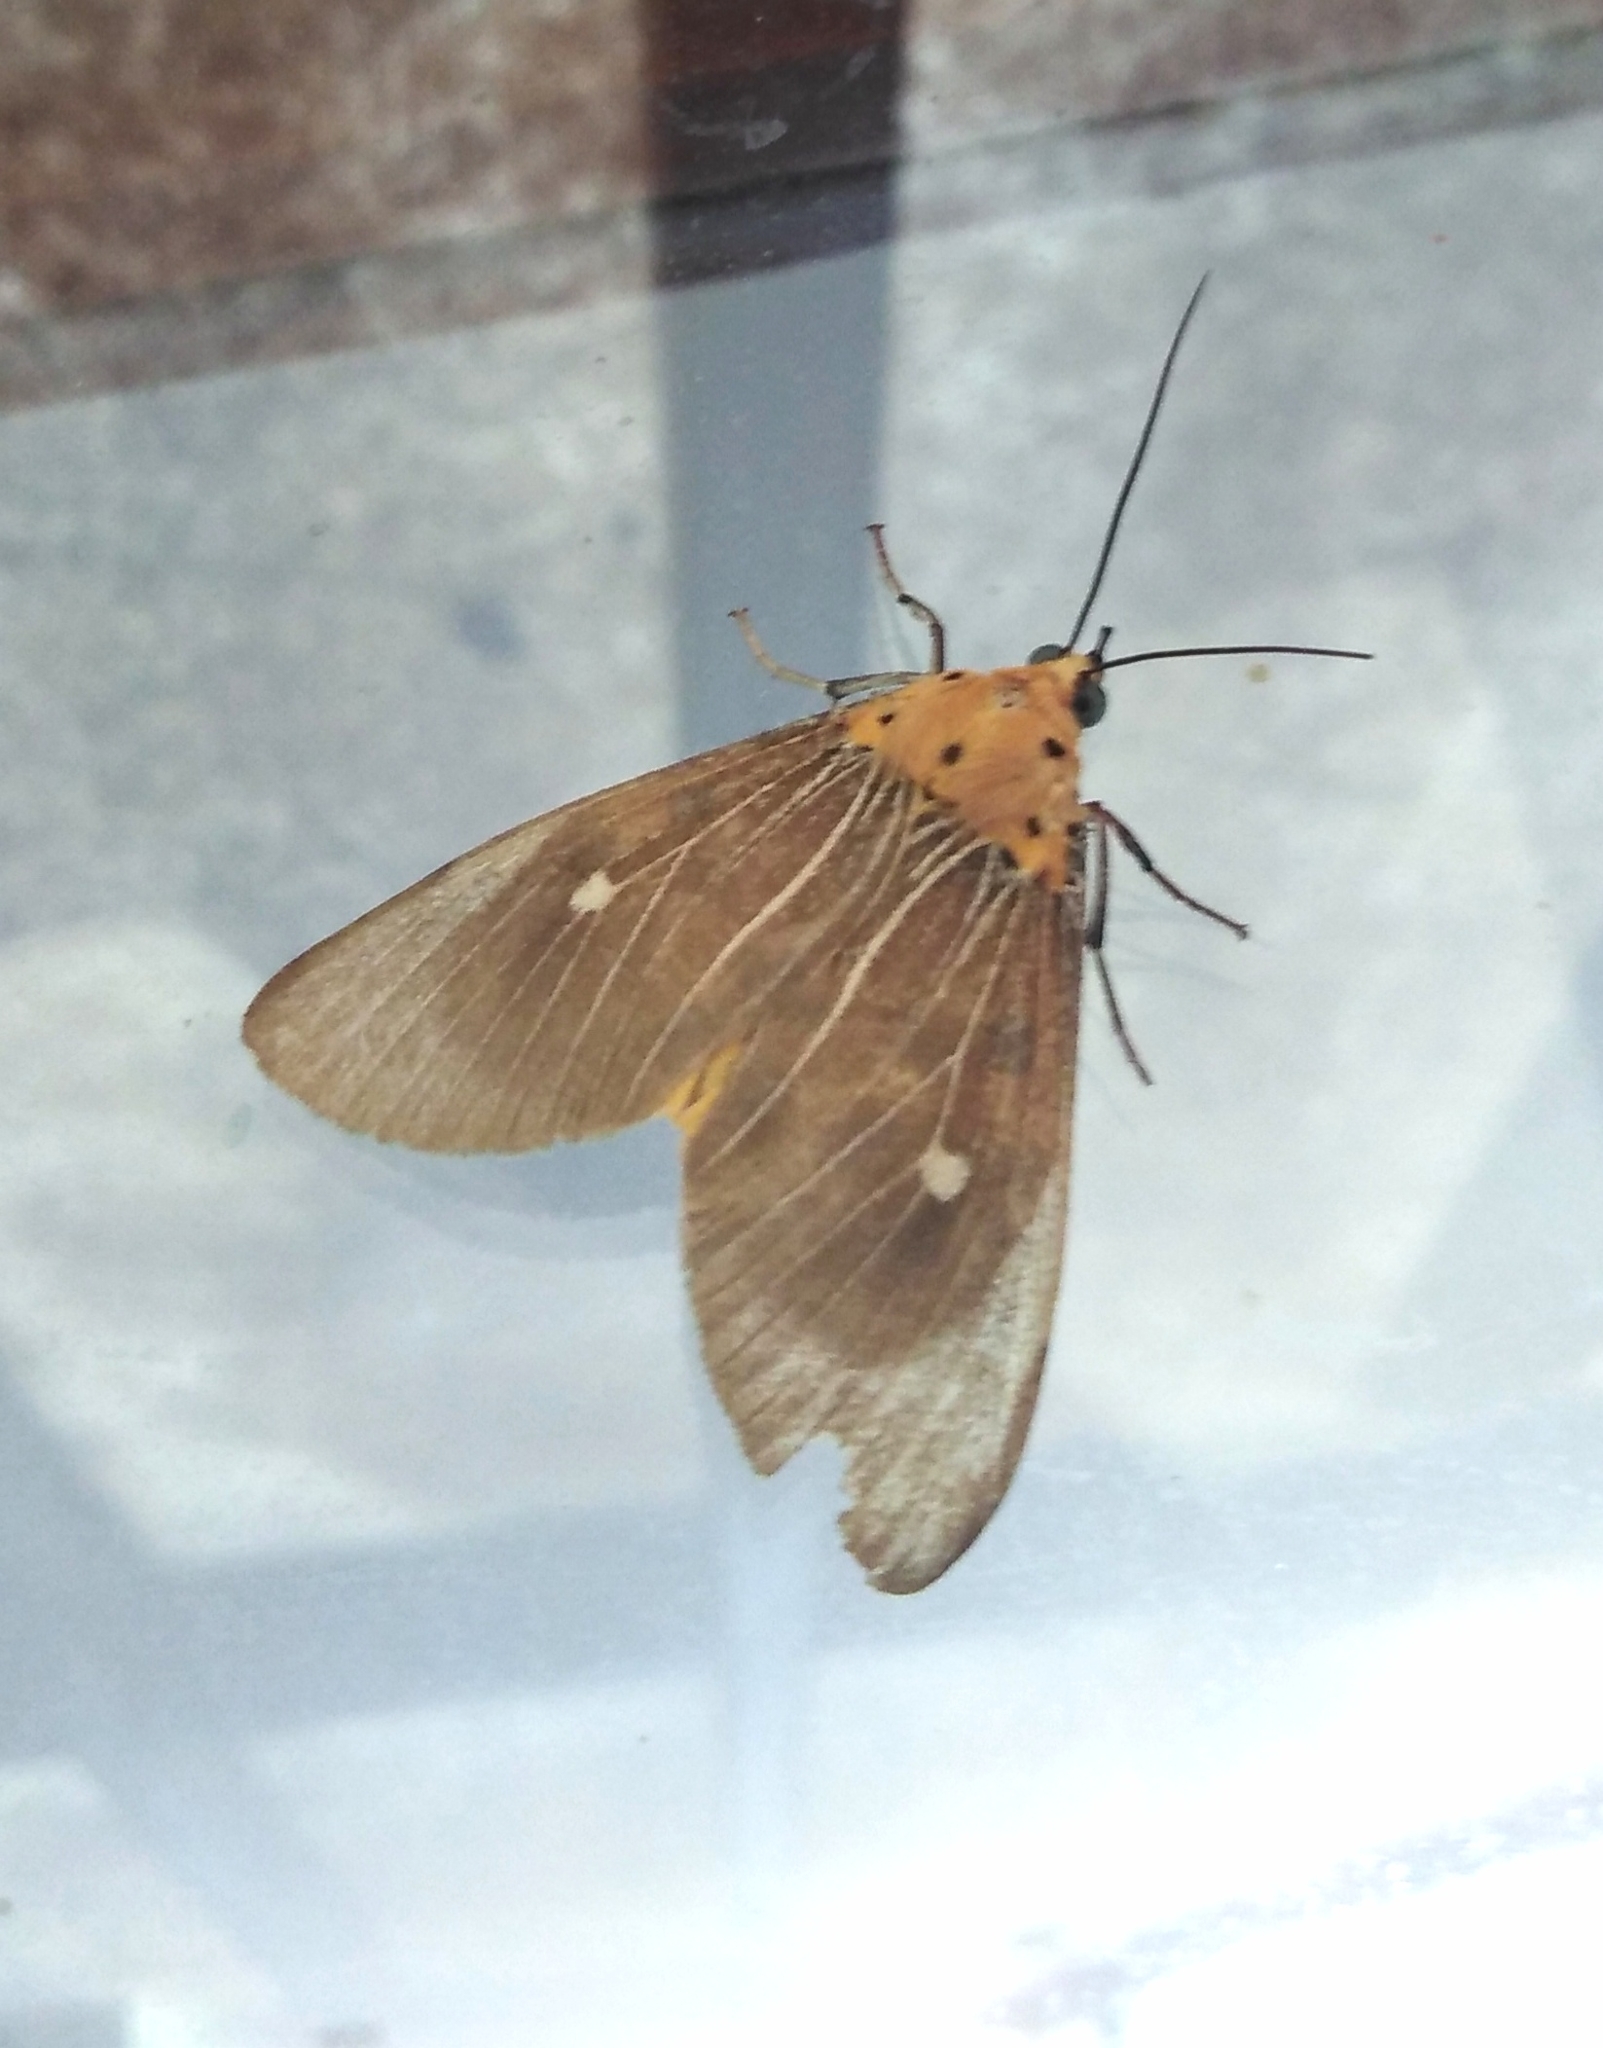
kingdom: Animalia
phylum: Arthropoda
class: Insecta
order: Lepidoptera
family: Erebidae
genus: Asota
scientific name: Asota caricae
